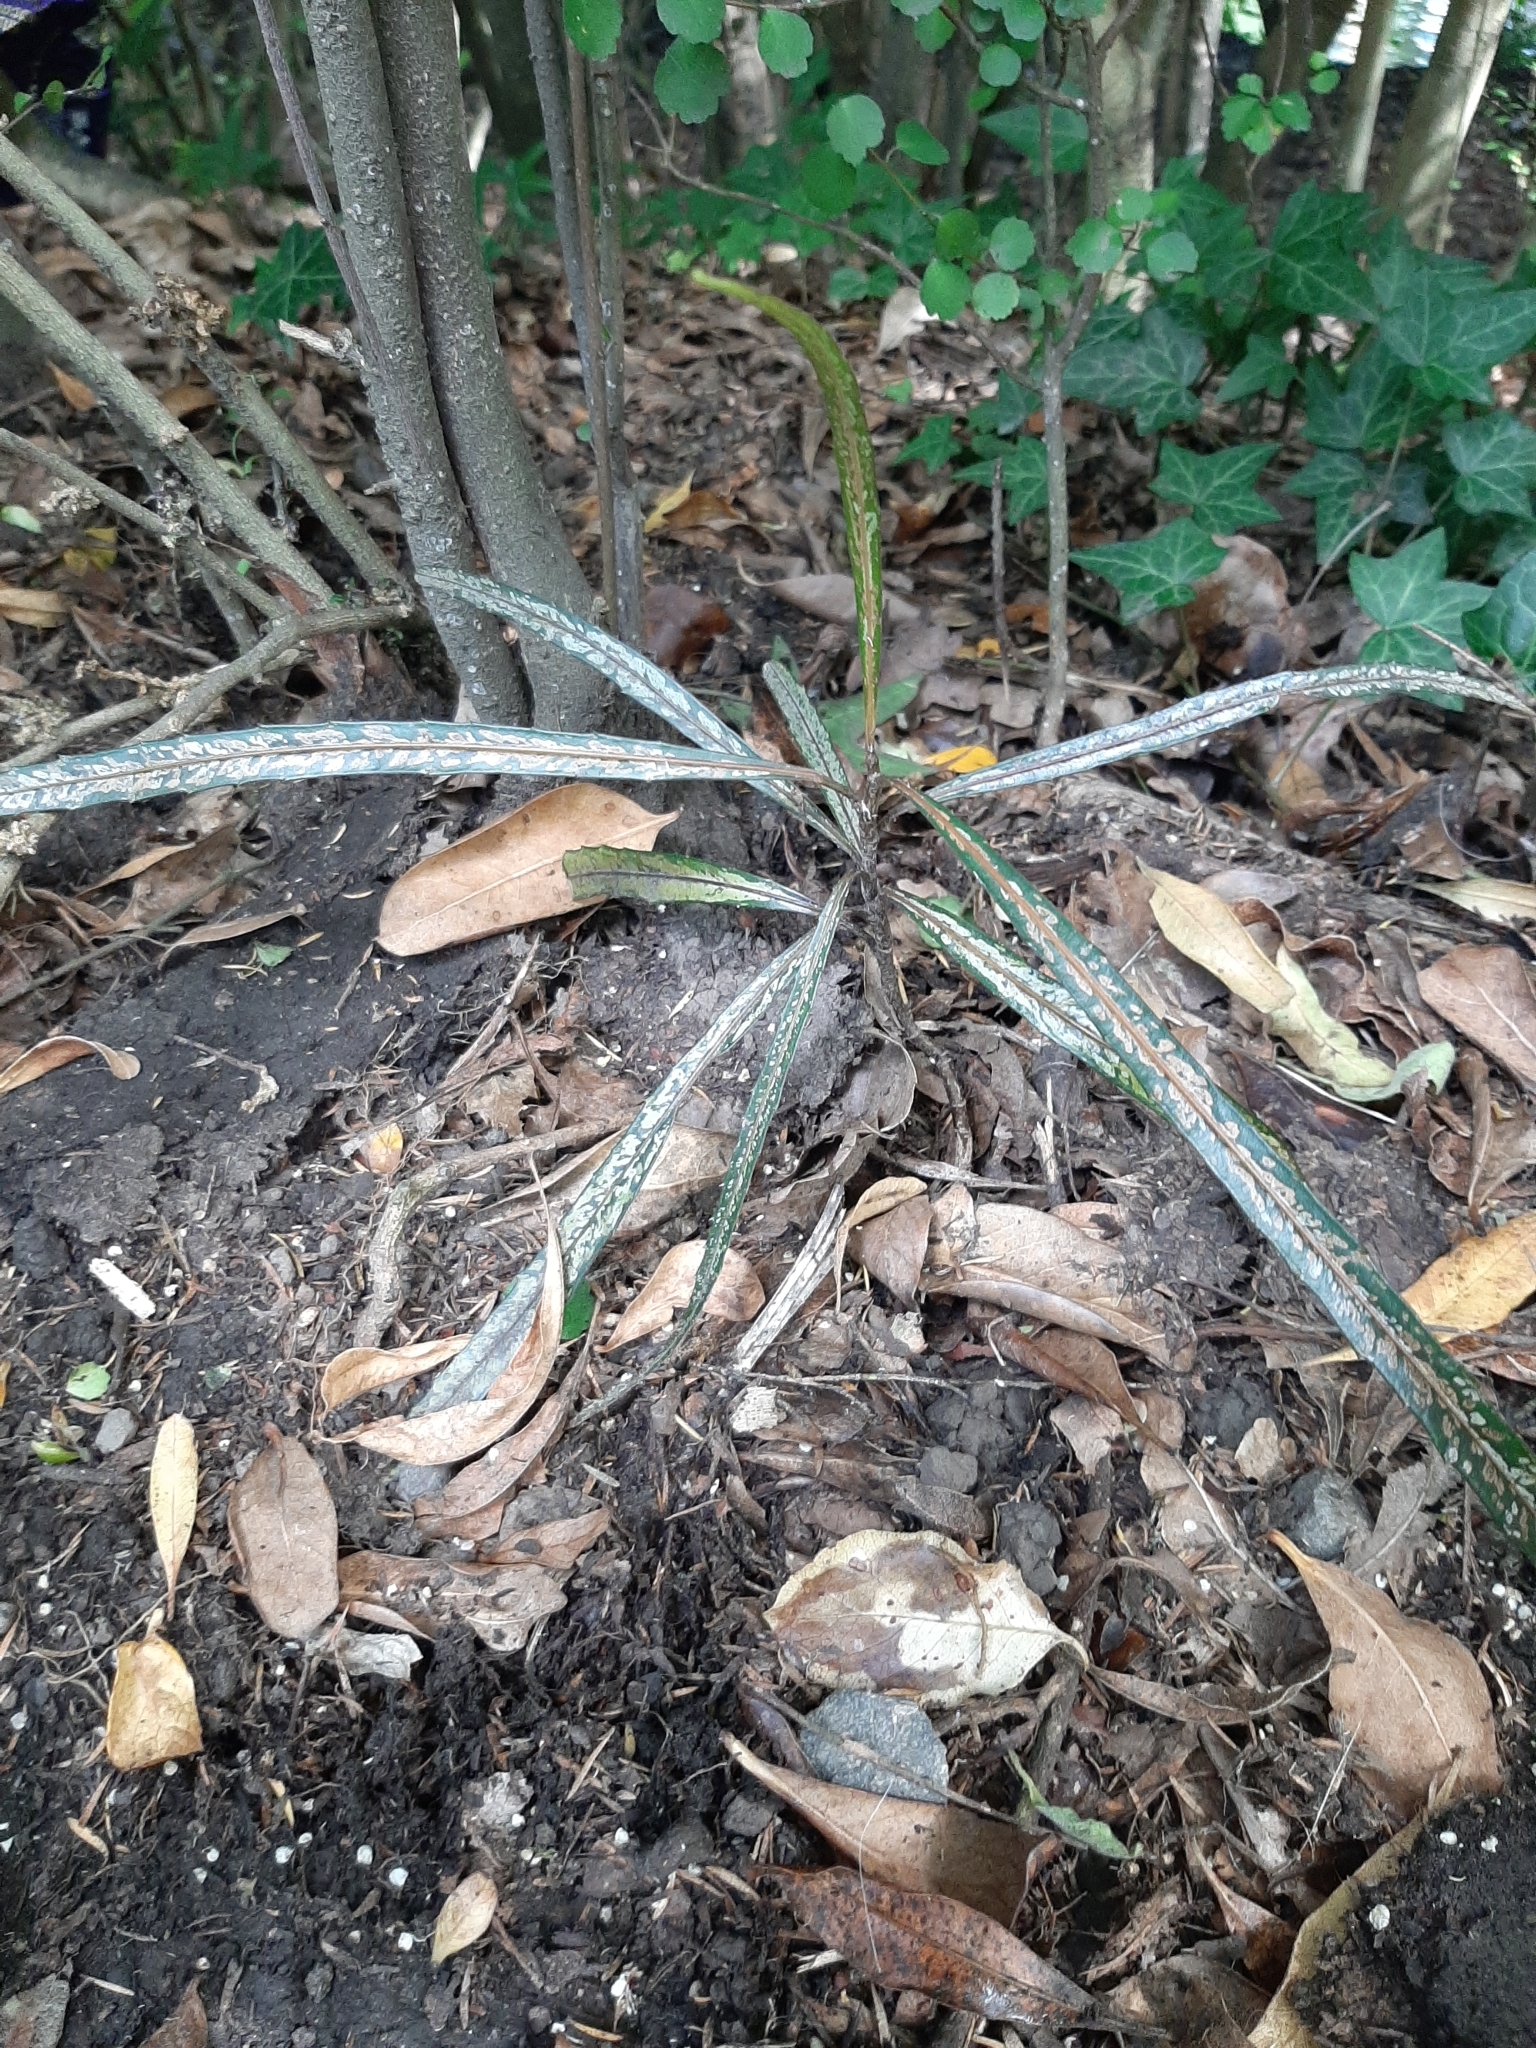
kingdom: Plantae
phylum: Tracheophyta
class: Magnoliopsida
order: Apiales
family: Araliaceae
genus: Pseudopanax
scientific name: Pseudopanax crassifolius
